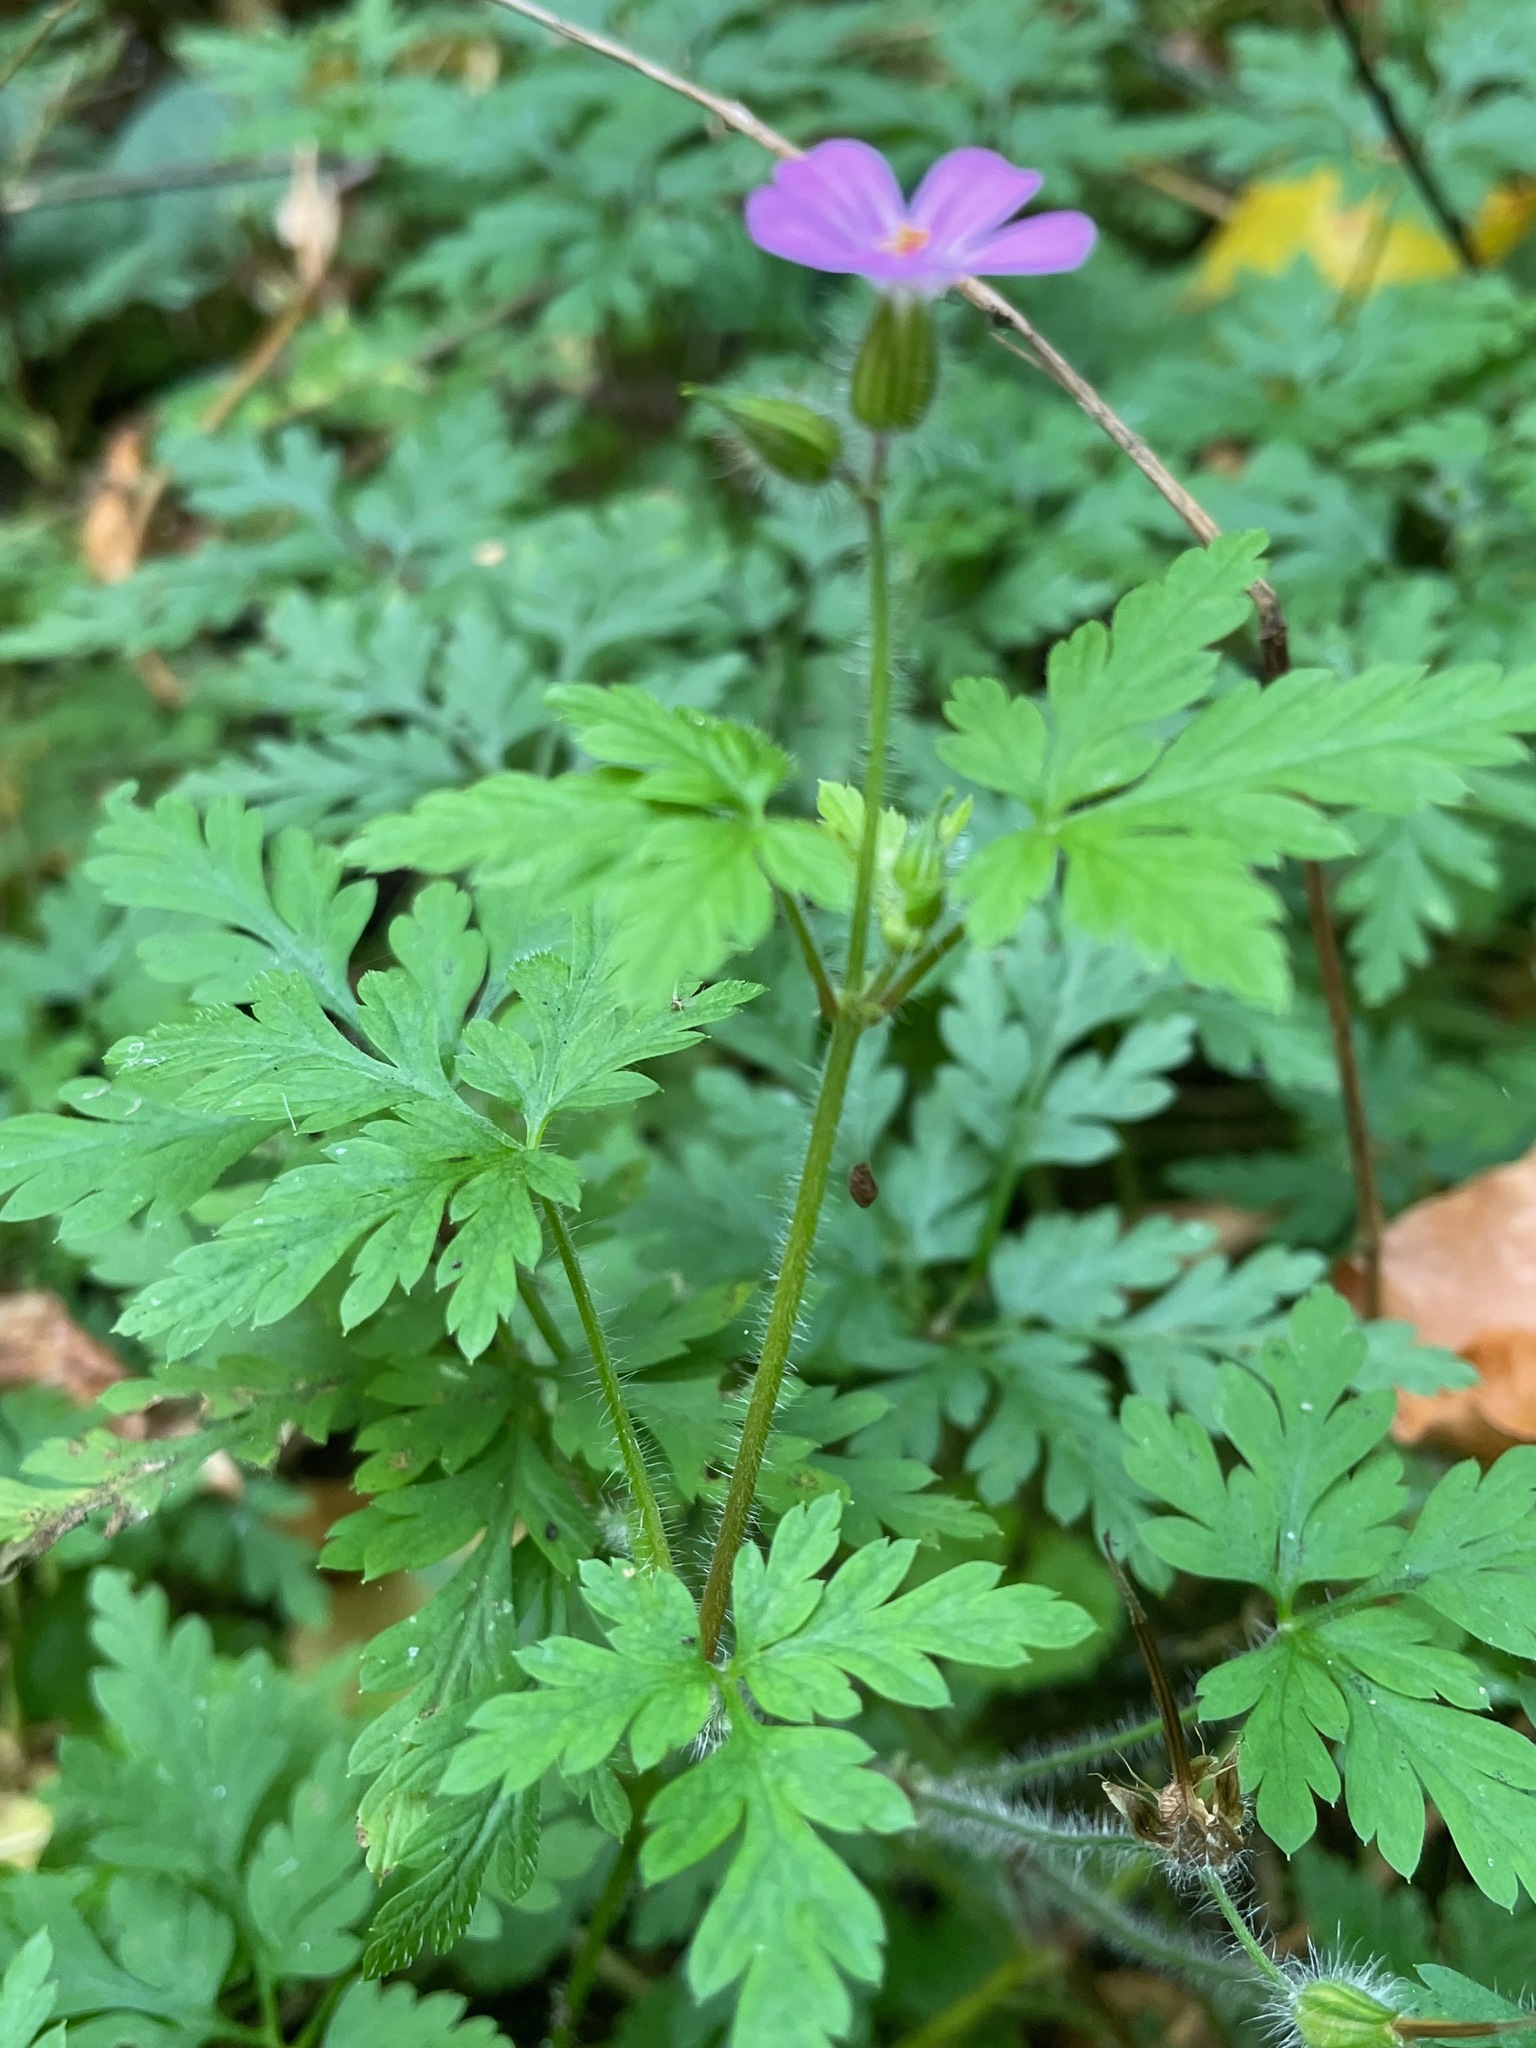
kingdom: Plantae
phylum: Tracheophyta
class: Magnoliopsida
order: Geraniales
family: Geraniaceae
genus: Geranium
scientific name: Geranium robertianum
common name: Herb-robert
